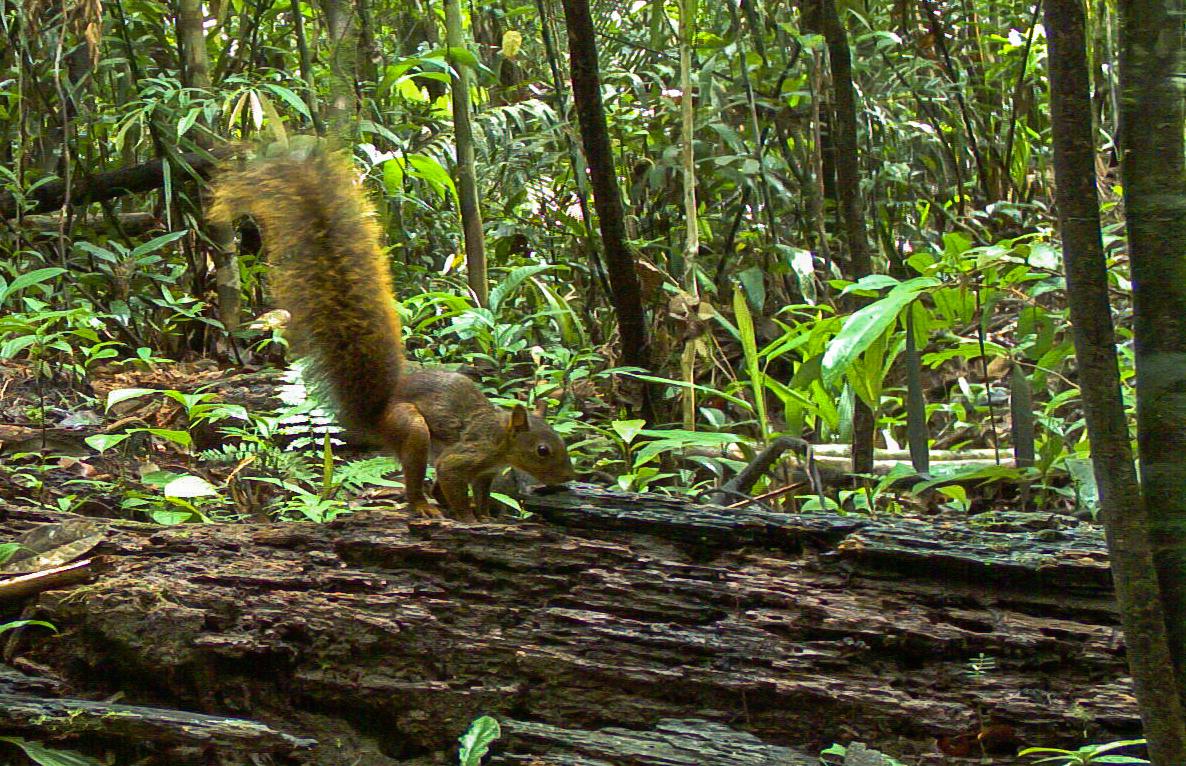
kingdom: Animalia
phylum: Chordata
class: Mammalia
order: Rodentia
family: Sciuridae
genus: Sciurus
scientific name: Sciurus spadiceus
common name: Southern amazon red squirrel
